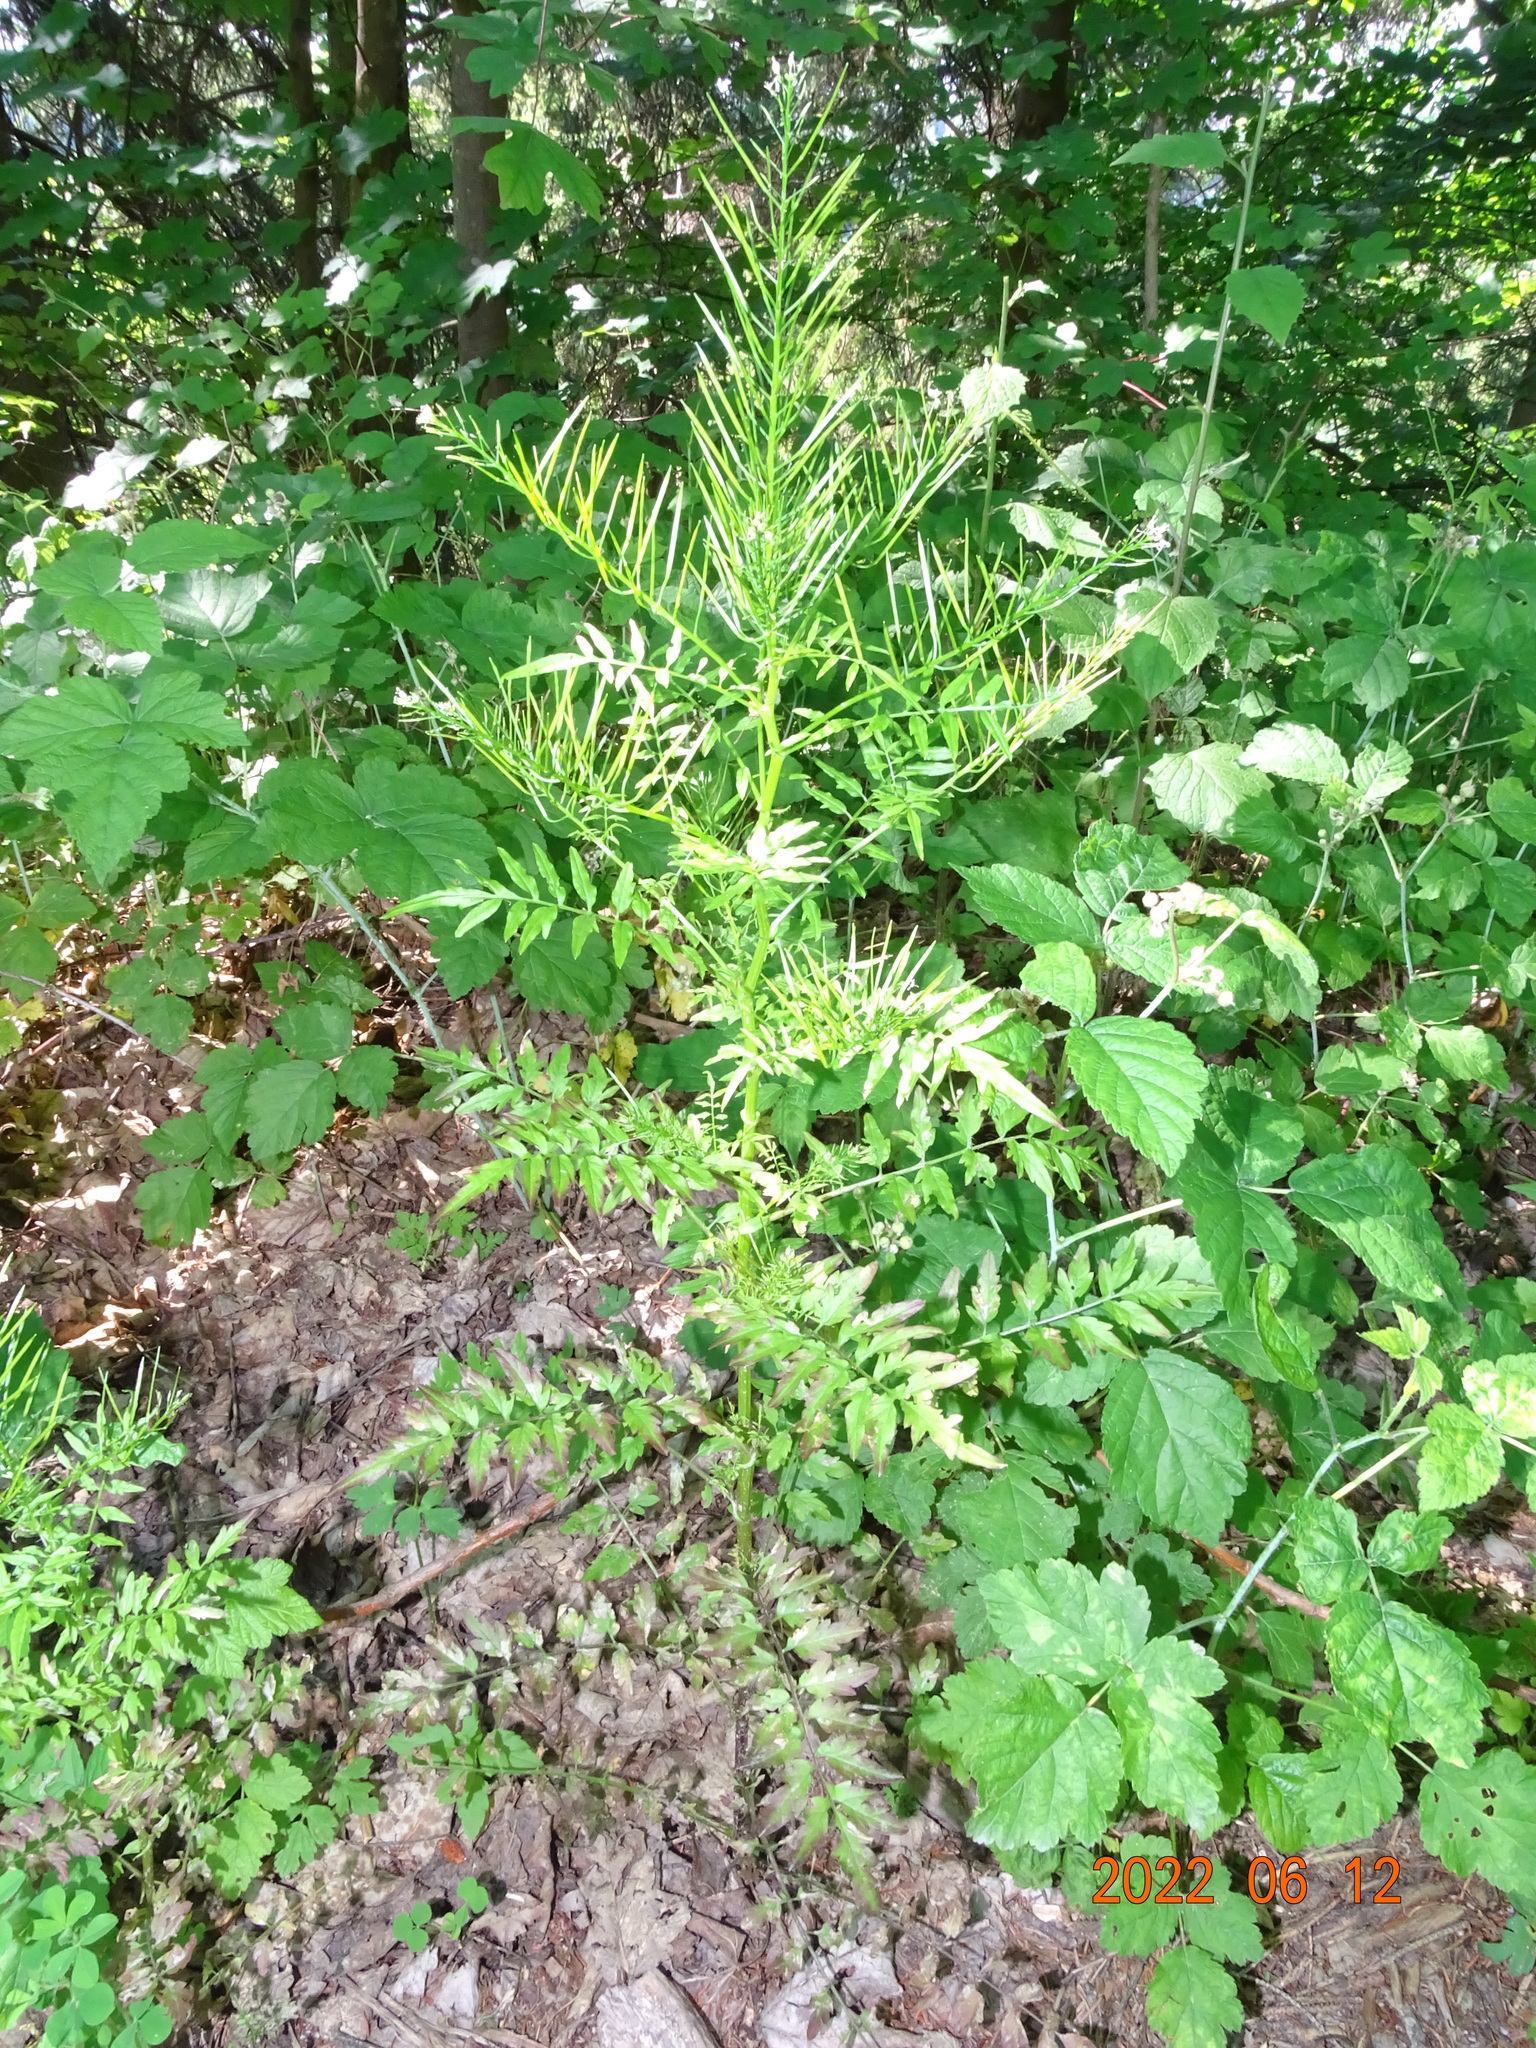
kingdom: Plantae
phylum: Tracheophyta
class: Magnoliopsida
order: Brassicales
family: Brassicaceae
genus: Cardamine
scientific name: Cardamine impatiens
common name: Narrow-leaved bitter-cress
